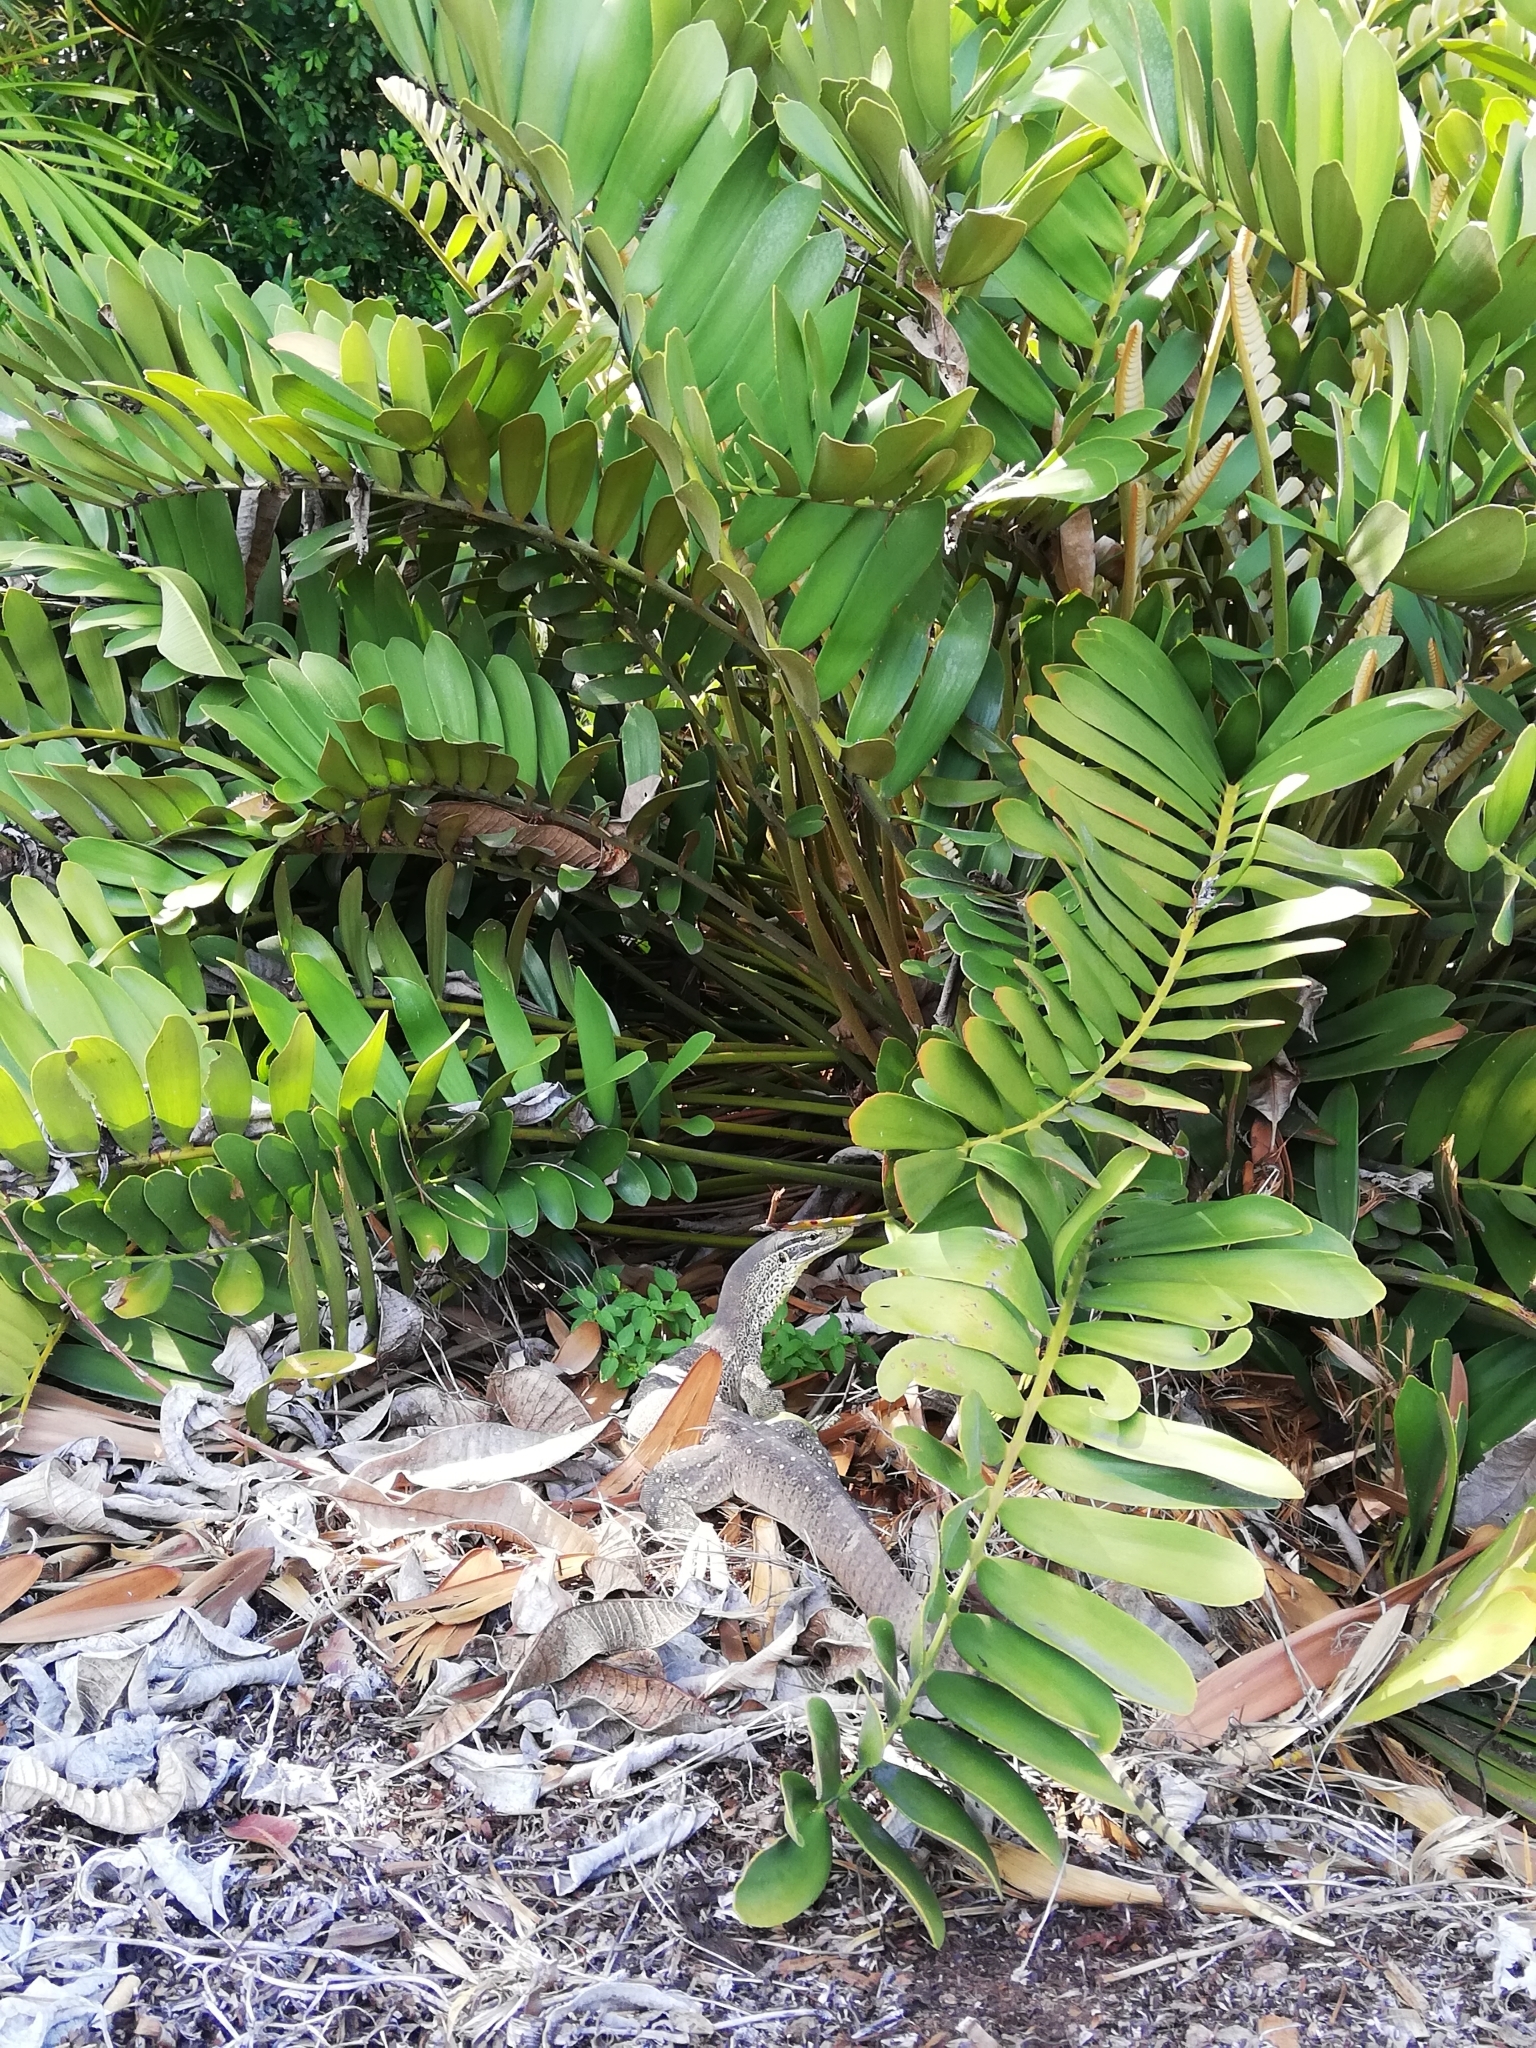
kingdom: Animalia
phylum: Chordata
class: Squamata
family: Varanidae
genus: Varanus
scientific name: Varanus panoptes
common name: Yellow-spotted monitor
